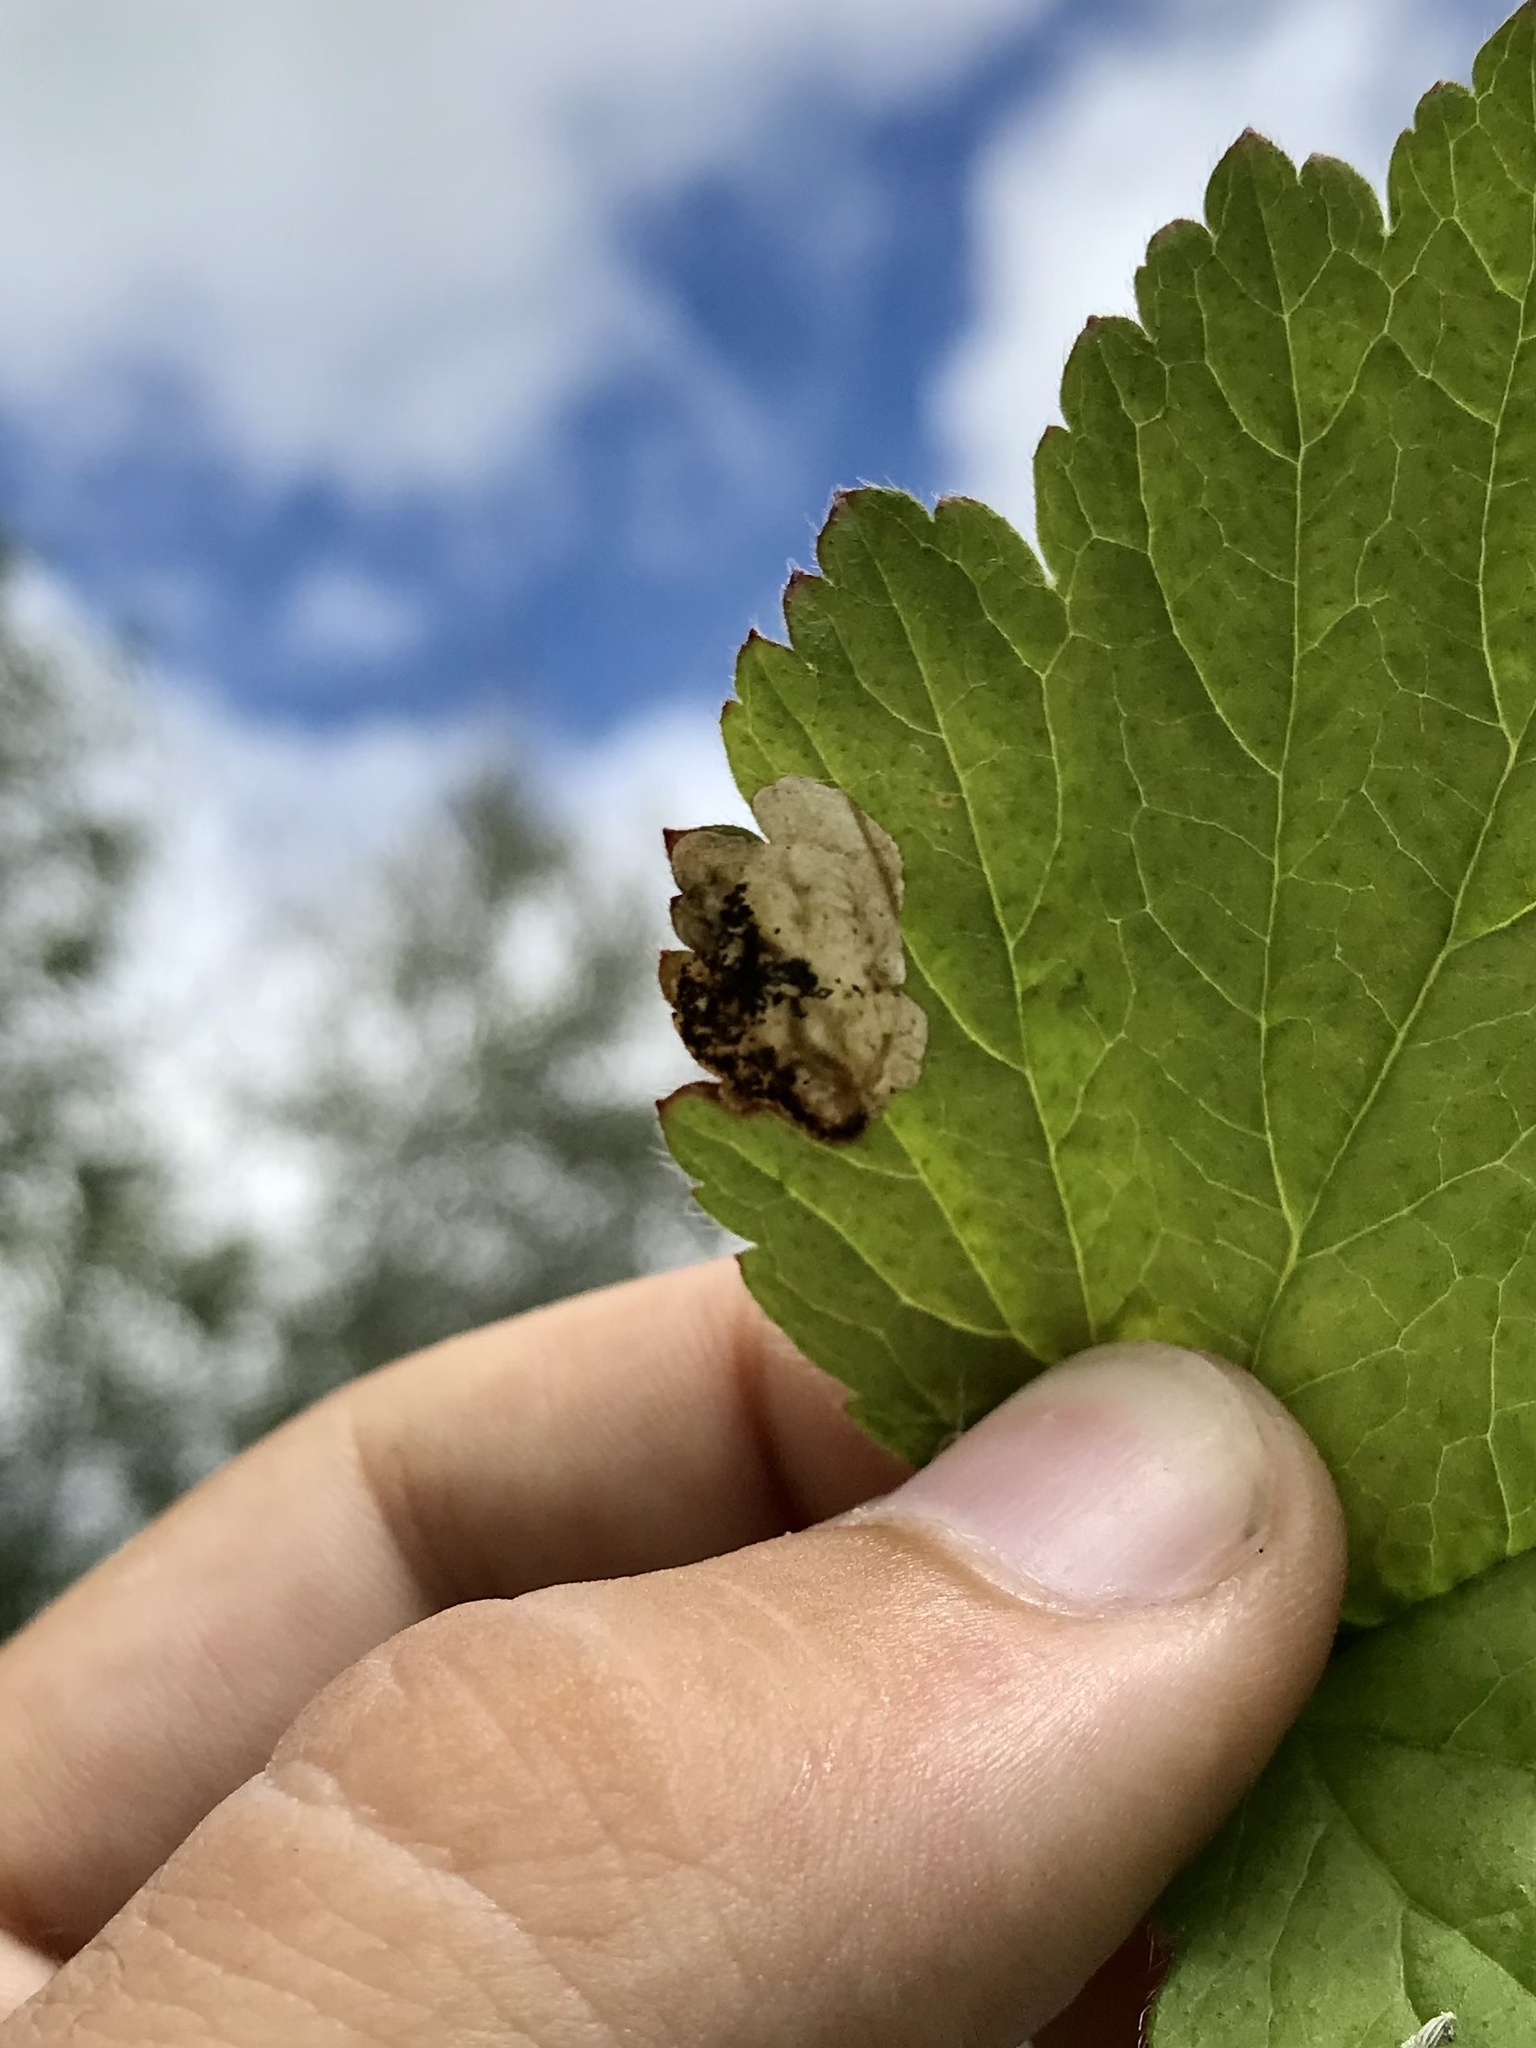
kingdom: Animalia
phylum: Arthropoda
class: Insecta
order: Hymenoptera
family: Tenthredinidae
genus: Metallus
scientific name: Metallus lanceolatus
